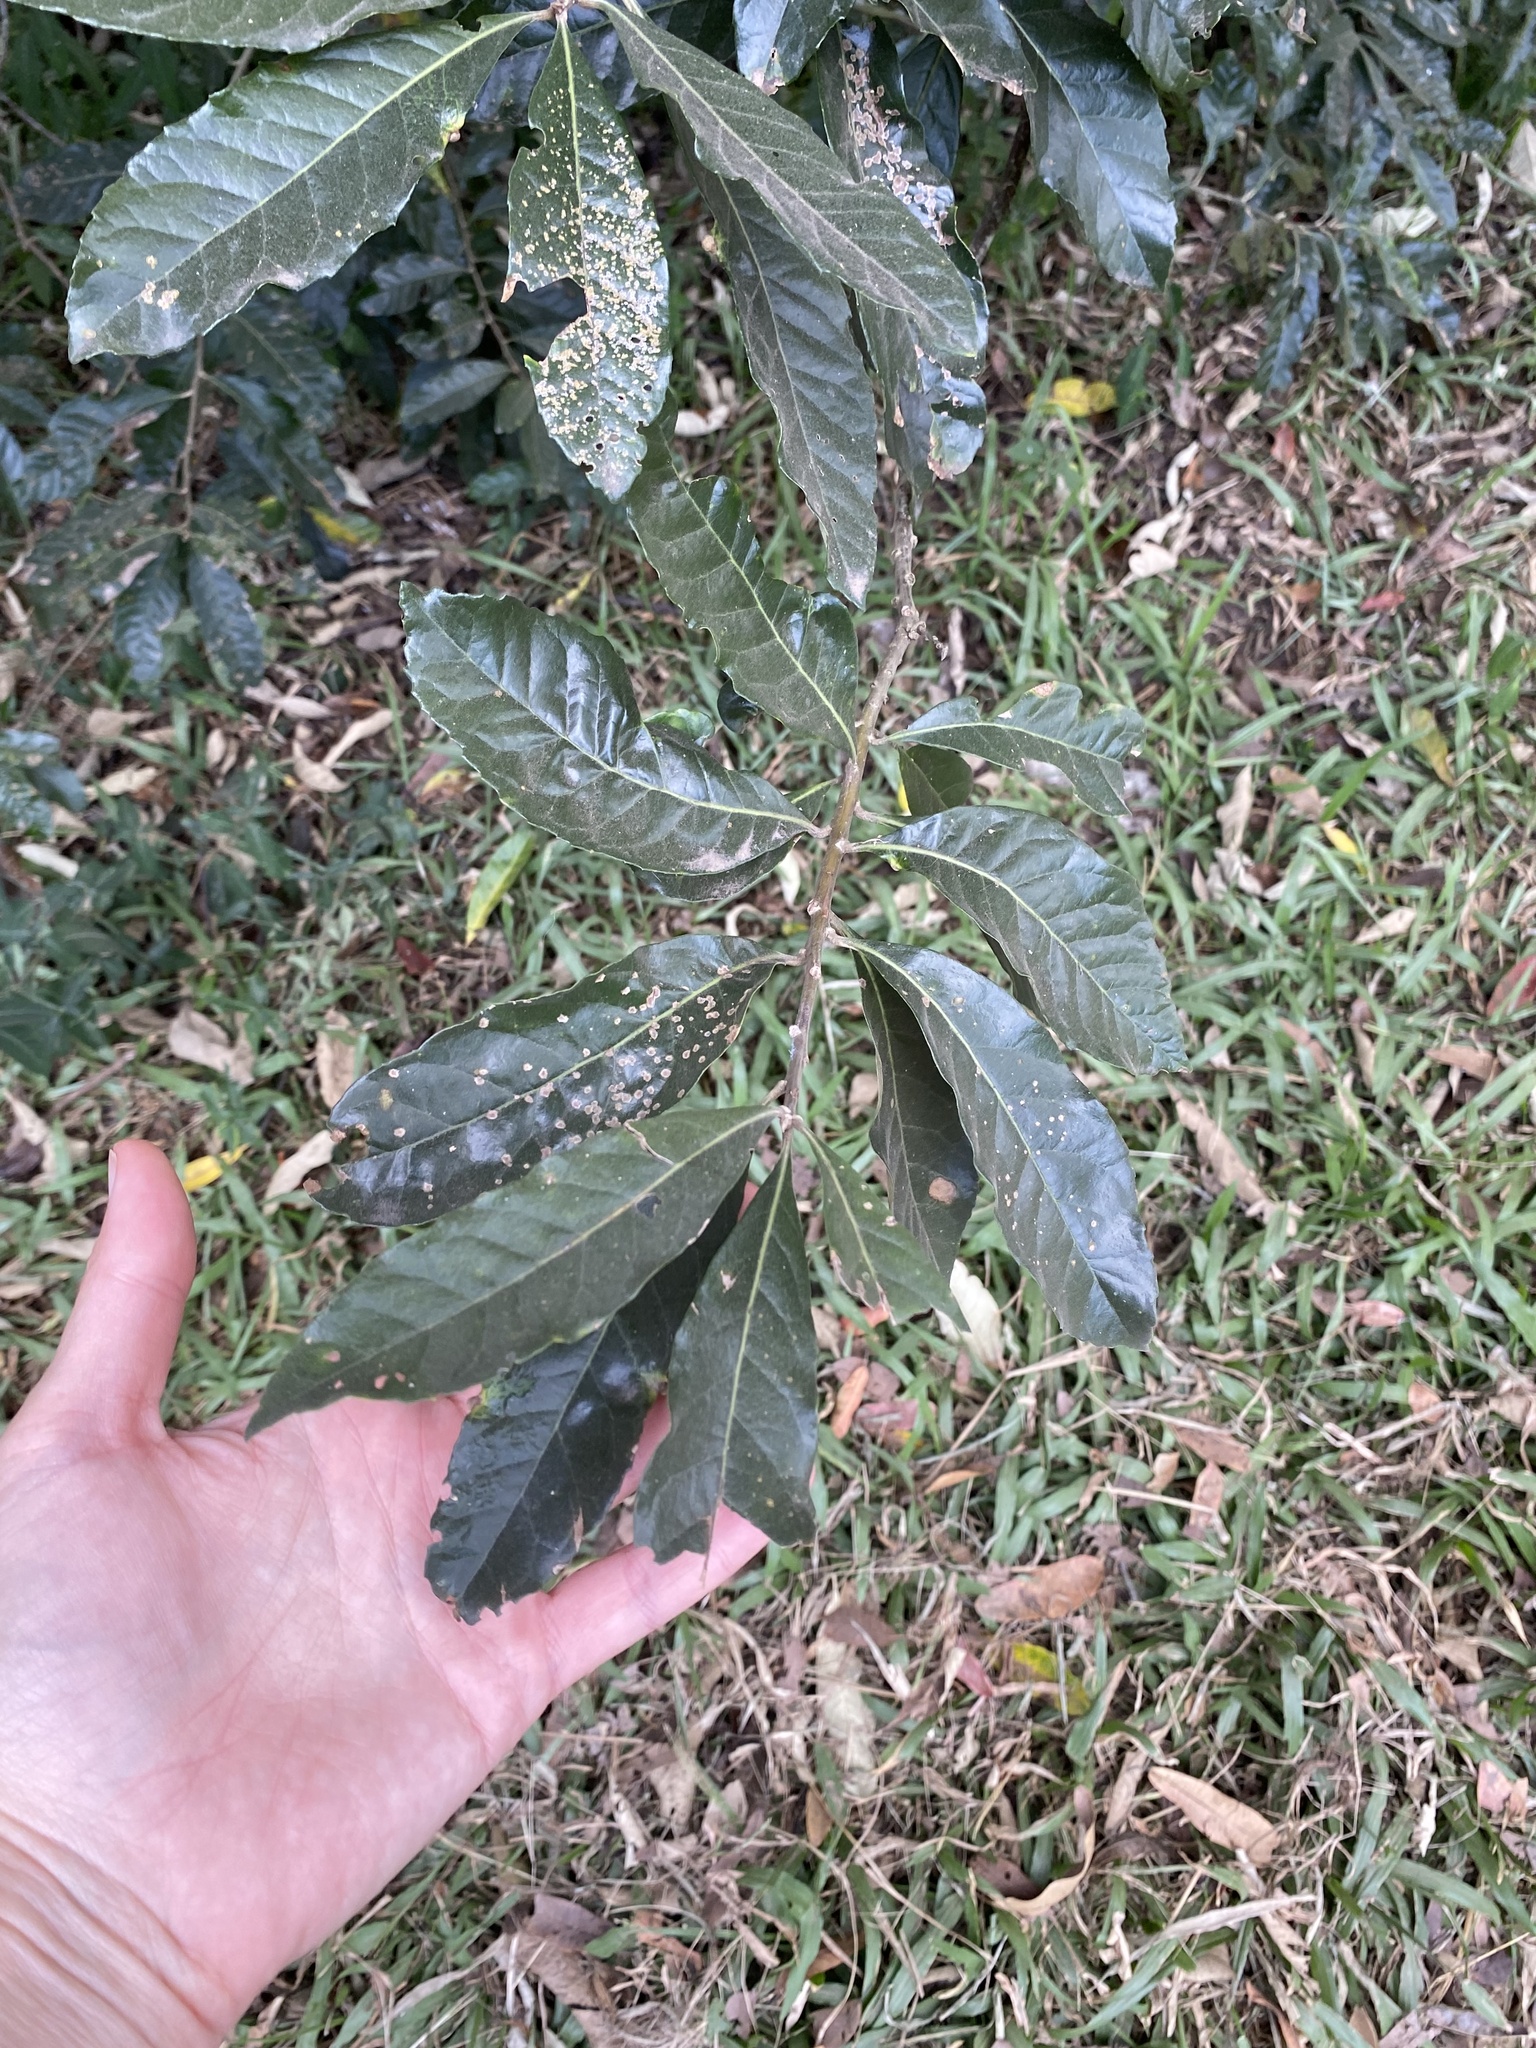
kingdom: Plantae
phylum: Tracheophyta
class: Magnoliopsida
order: Asterales
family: Asteraceae
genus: Brachylaena
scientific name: Brachylaena discolor
